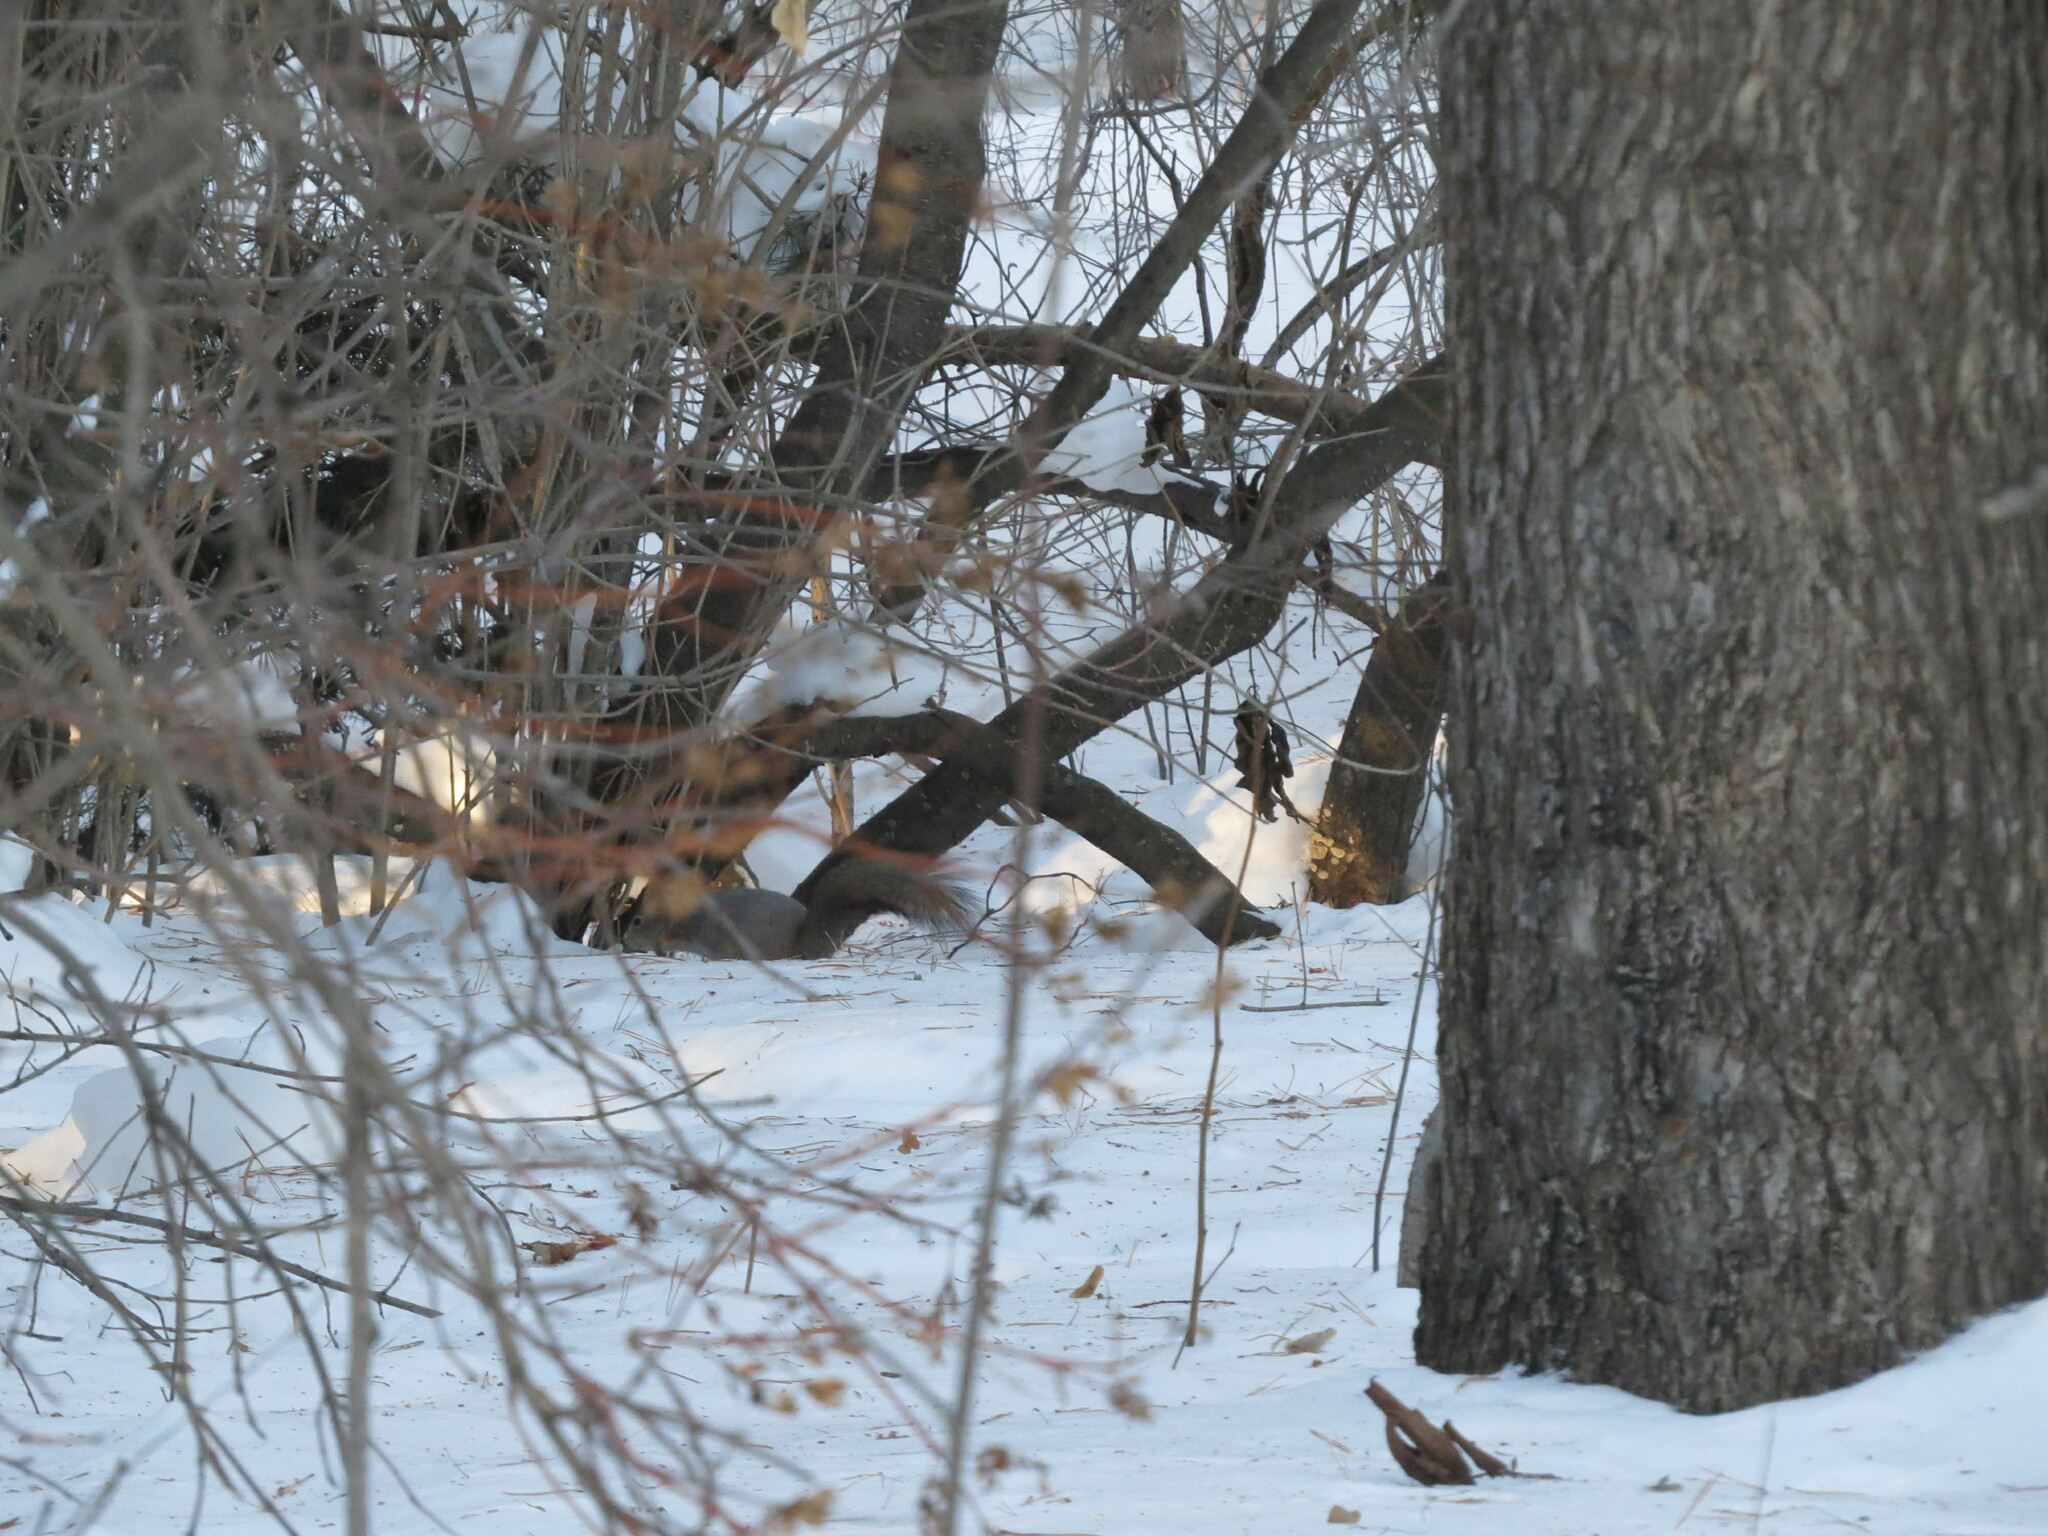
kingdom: Animalia
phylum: Chordata
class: Mammalia
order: Rodentia
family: Sciuridae
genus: Sciurus
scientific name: Sciurus vulgaris
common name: Eurasian red squirrel
